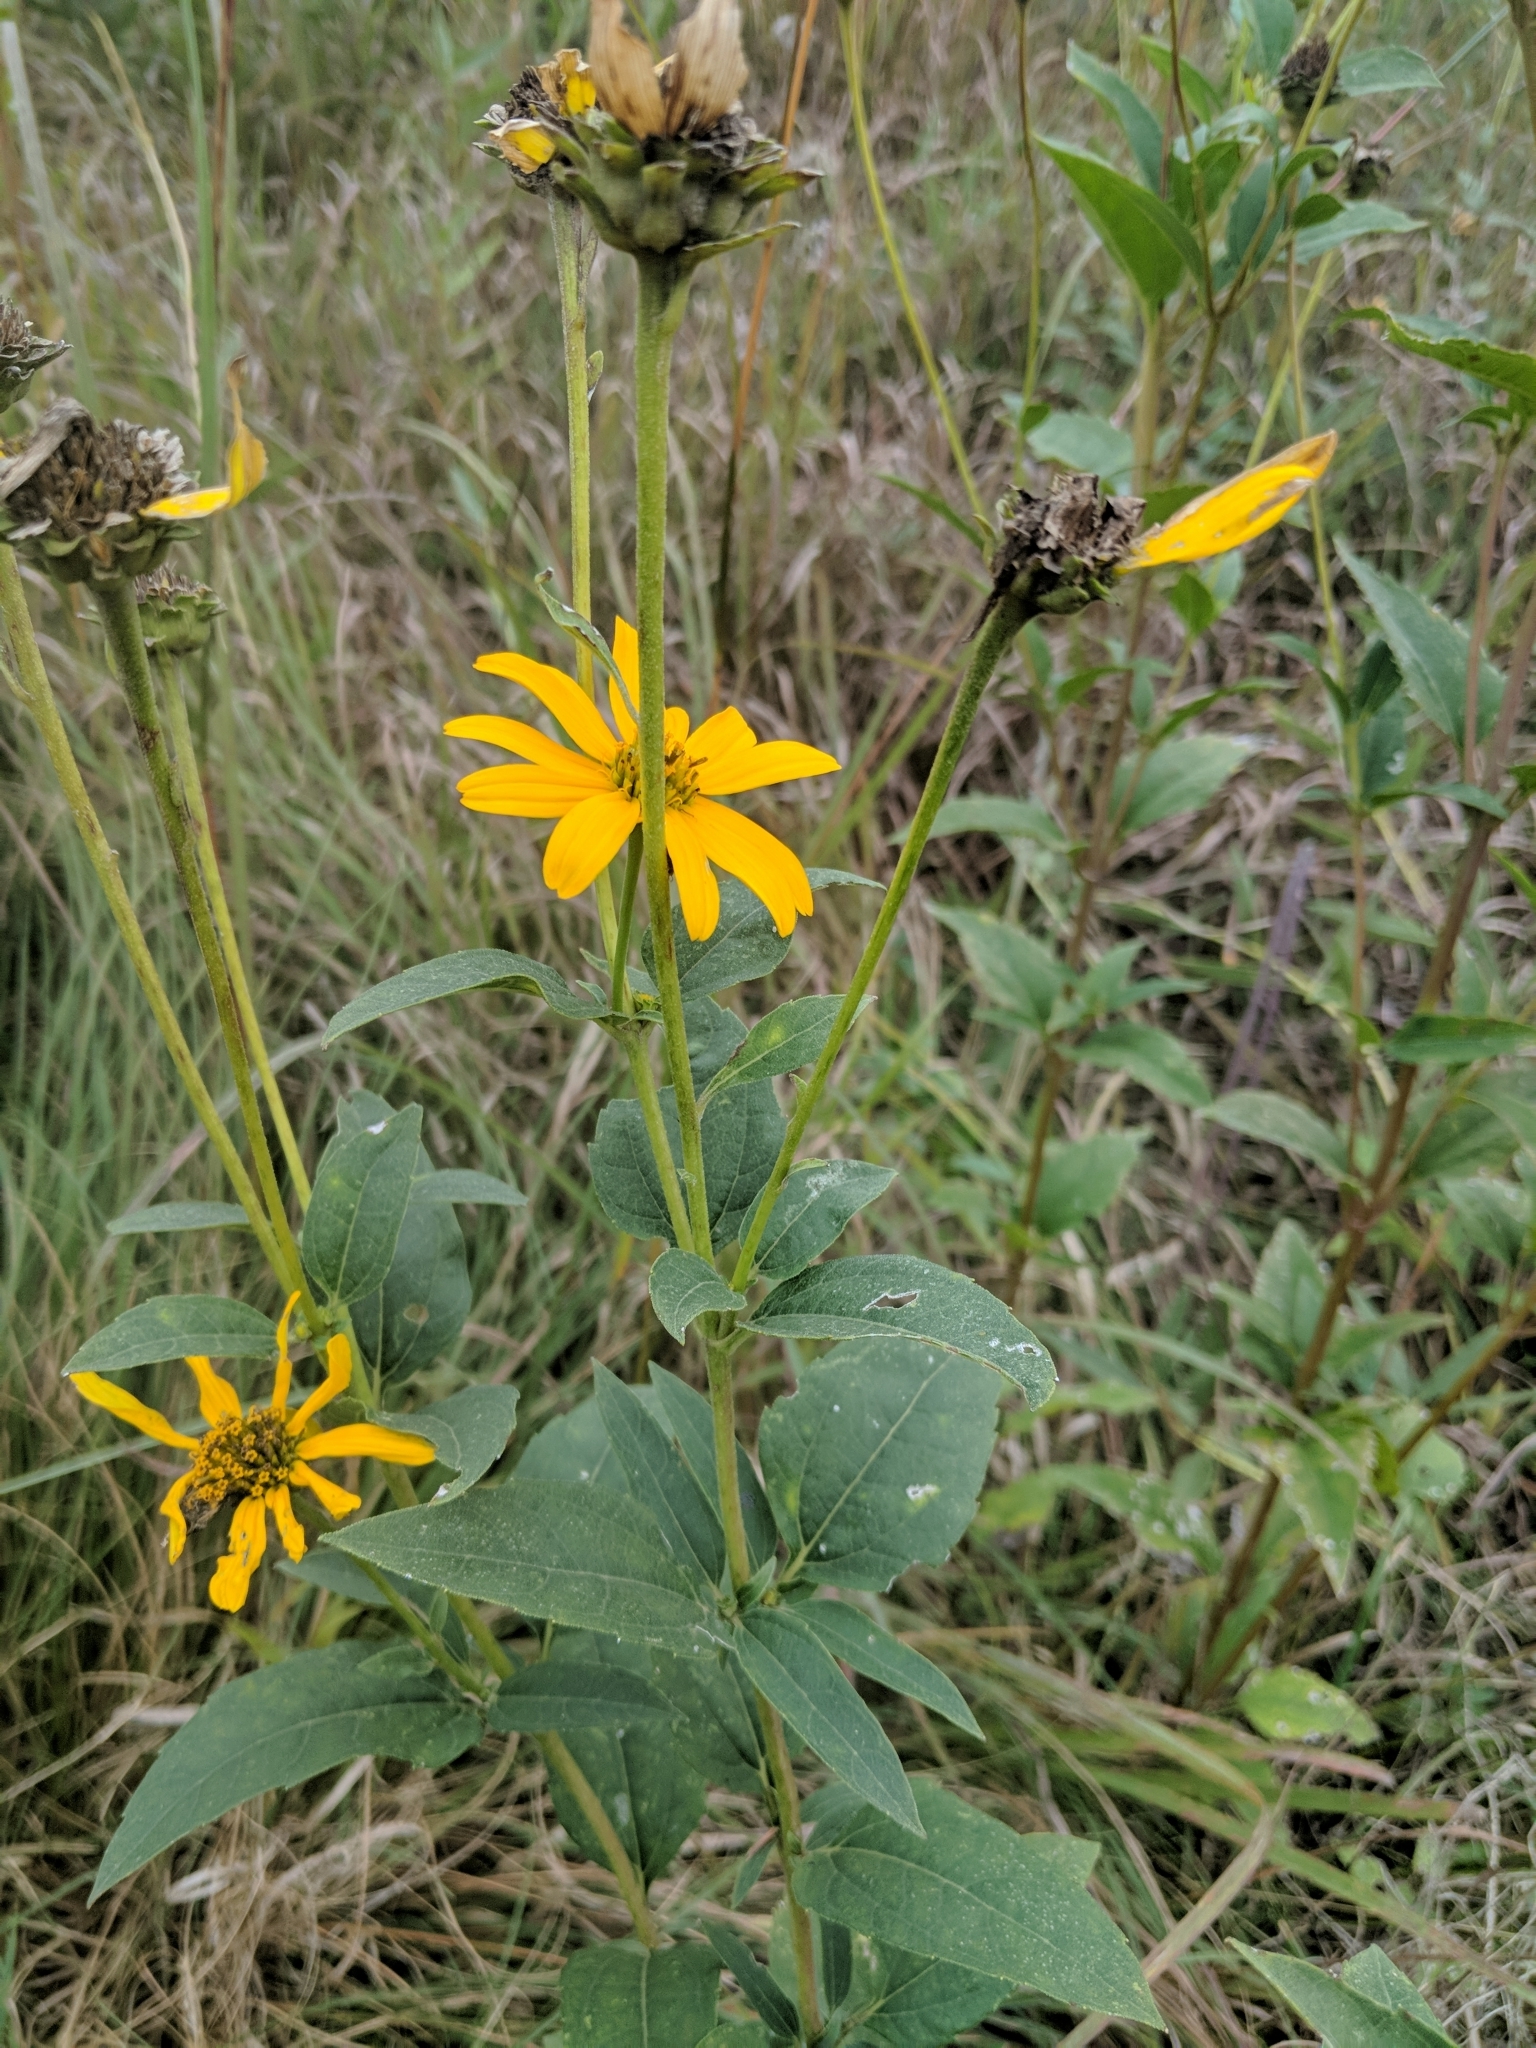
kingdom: Plantae
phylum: Tracheophyta
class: Magnoliopsida
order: Asterales
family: Asteraceae
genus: Helianthus
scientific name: Helianthus tuberosus
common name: Jerusalem artichoke
